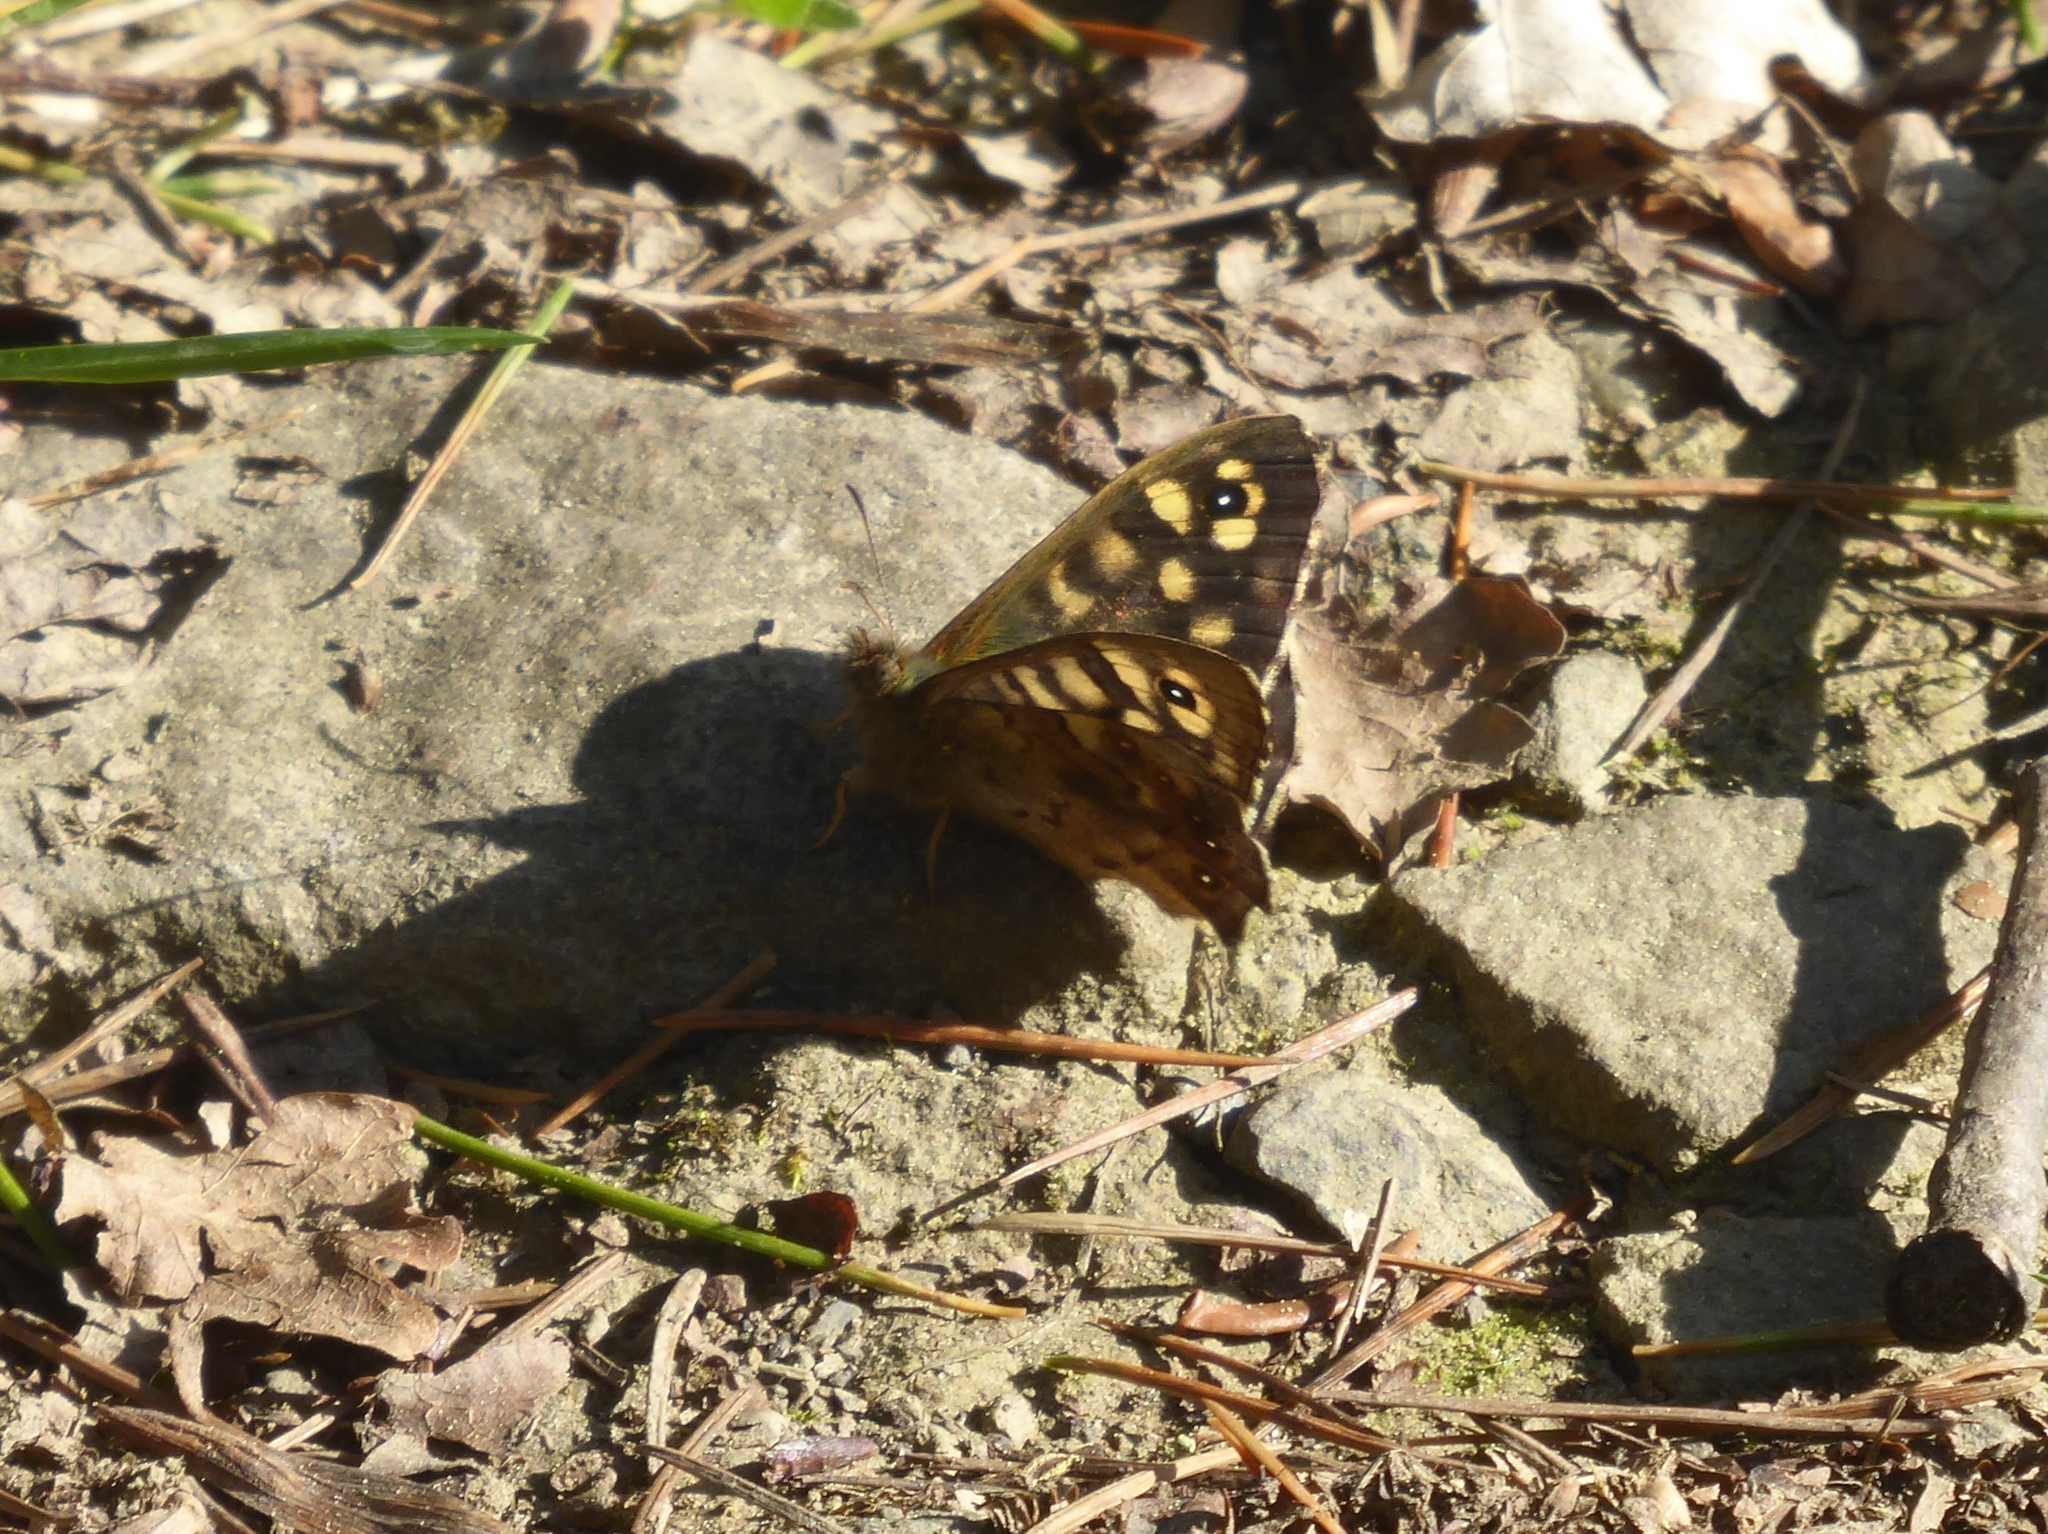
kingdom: Animalia
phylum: Arthropoda
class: Insecta
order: Lepidoptera
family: Nymphalidae
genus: Pararge
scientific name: Pararge aegeria
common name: Speckled wood
